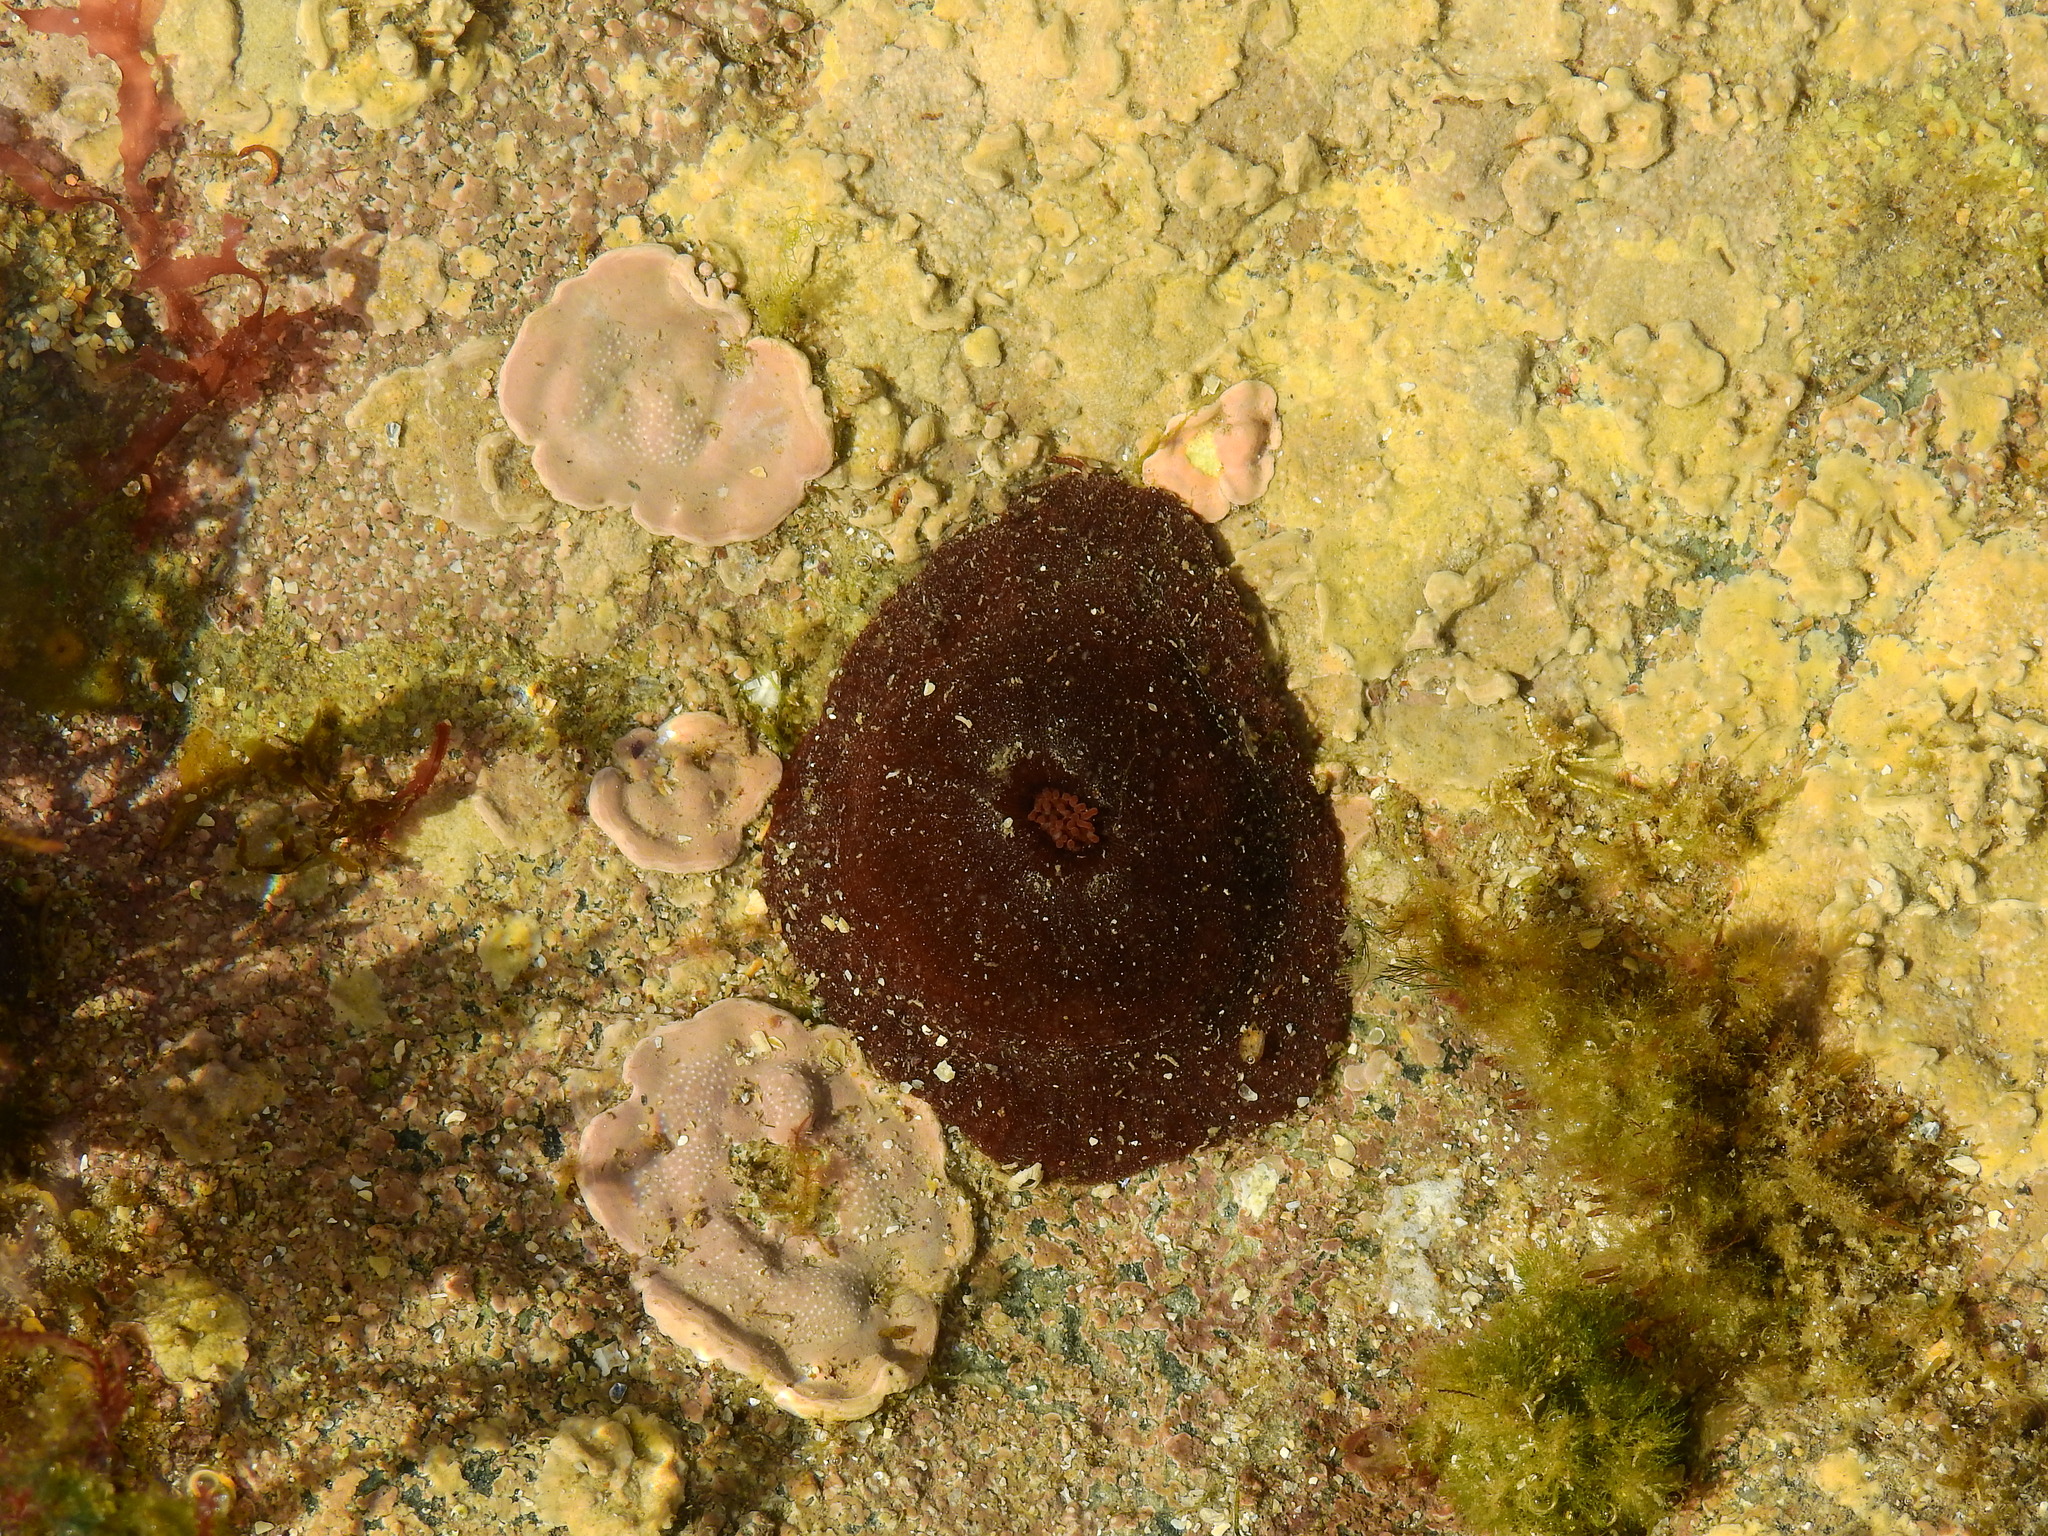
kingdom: Animalia
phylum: Cnidaria
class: Anthozoa
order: Actiniaria
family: Actiniidae
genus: Actinia
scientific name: Actinia equina
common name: Beadlet anemone
